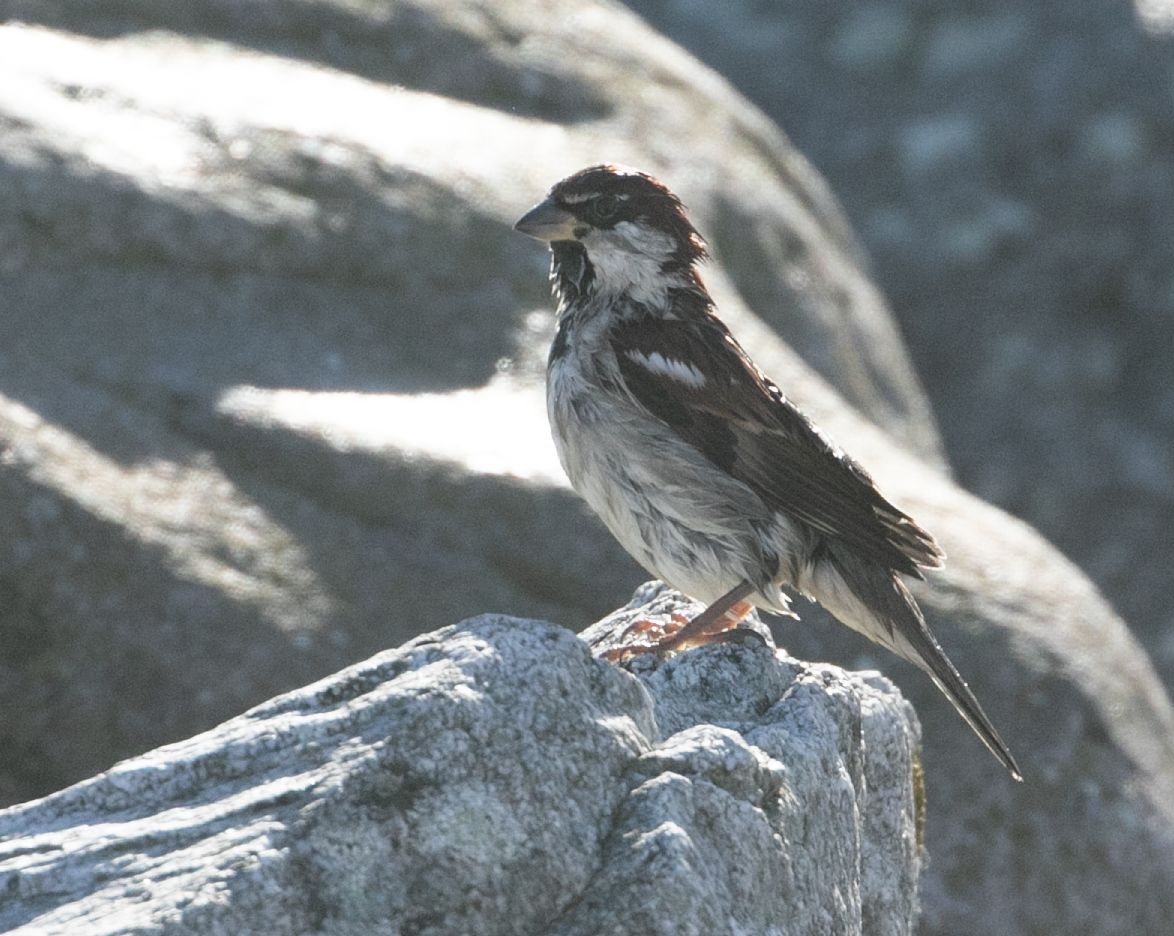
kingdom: Animalia
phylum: Chordata
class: Aves
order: Passeriformes
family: Passeridae
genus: Passer
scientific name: Passer italiae
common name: Italian sparrow
